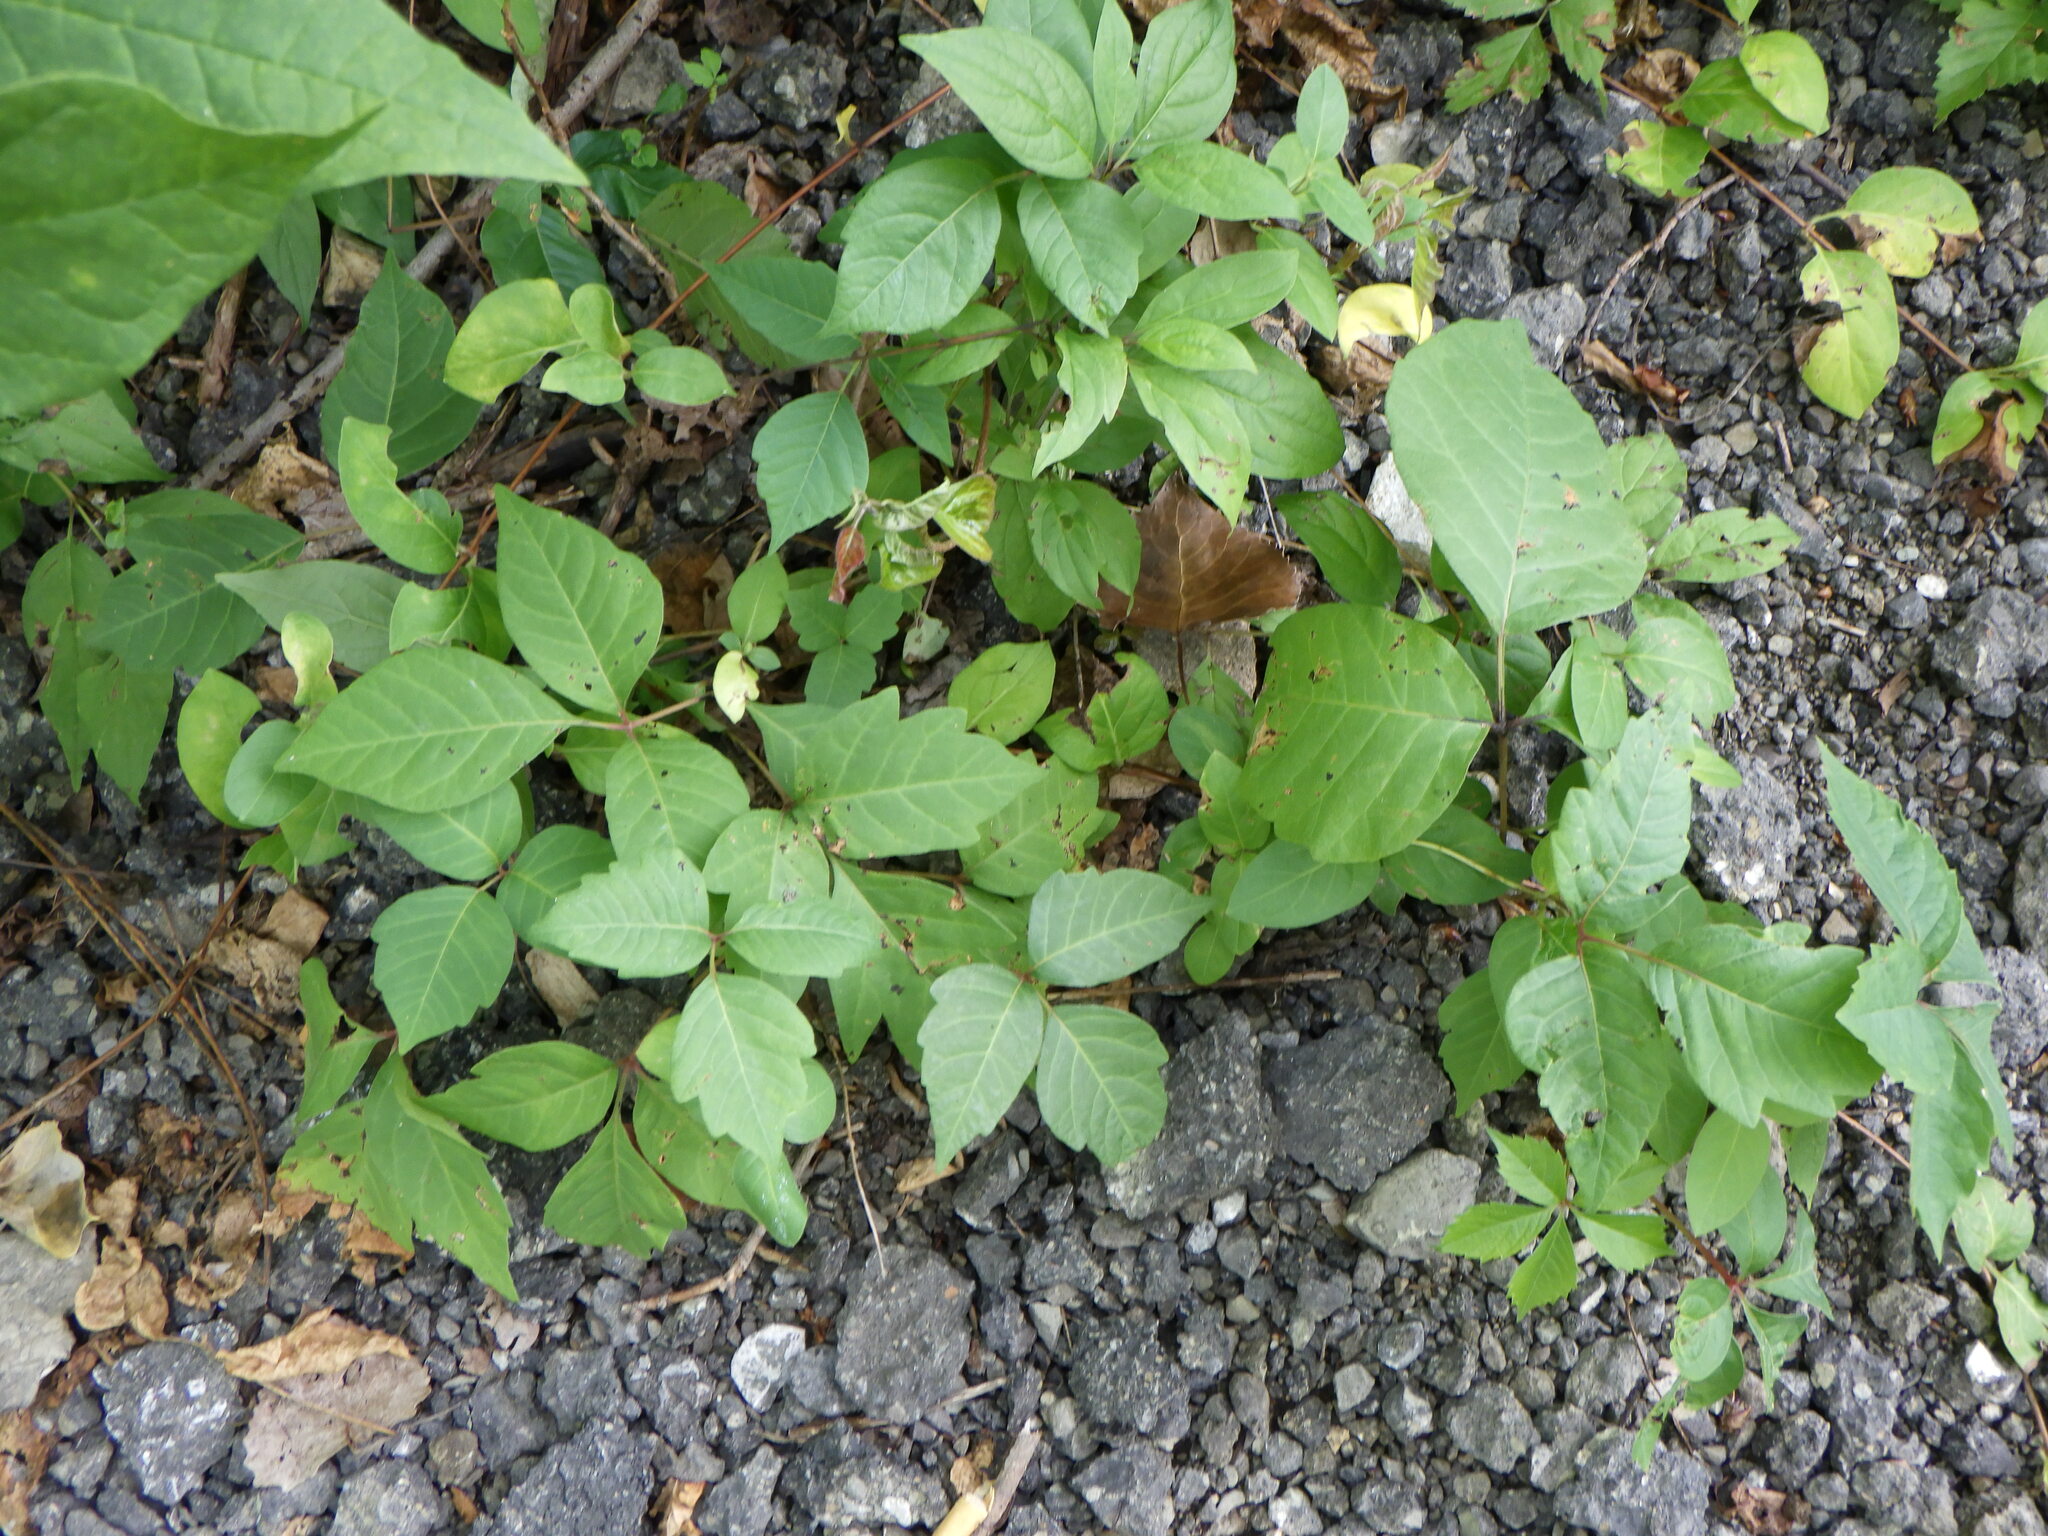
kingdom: Plantae
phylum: Tracheophyta
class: Magnoliopsida
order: Sapindales
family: Anacardiaceae
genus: Toxicodendron
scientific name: Toxicodendron radicans
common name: Poison ivy
